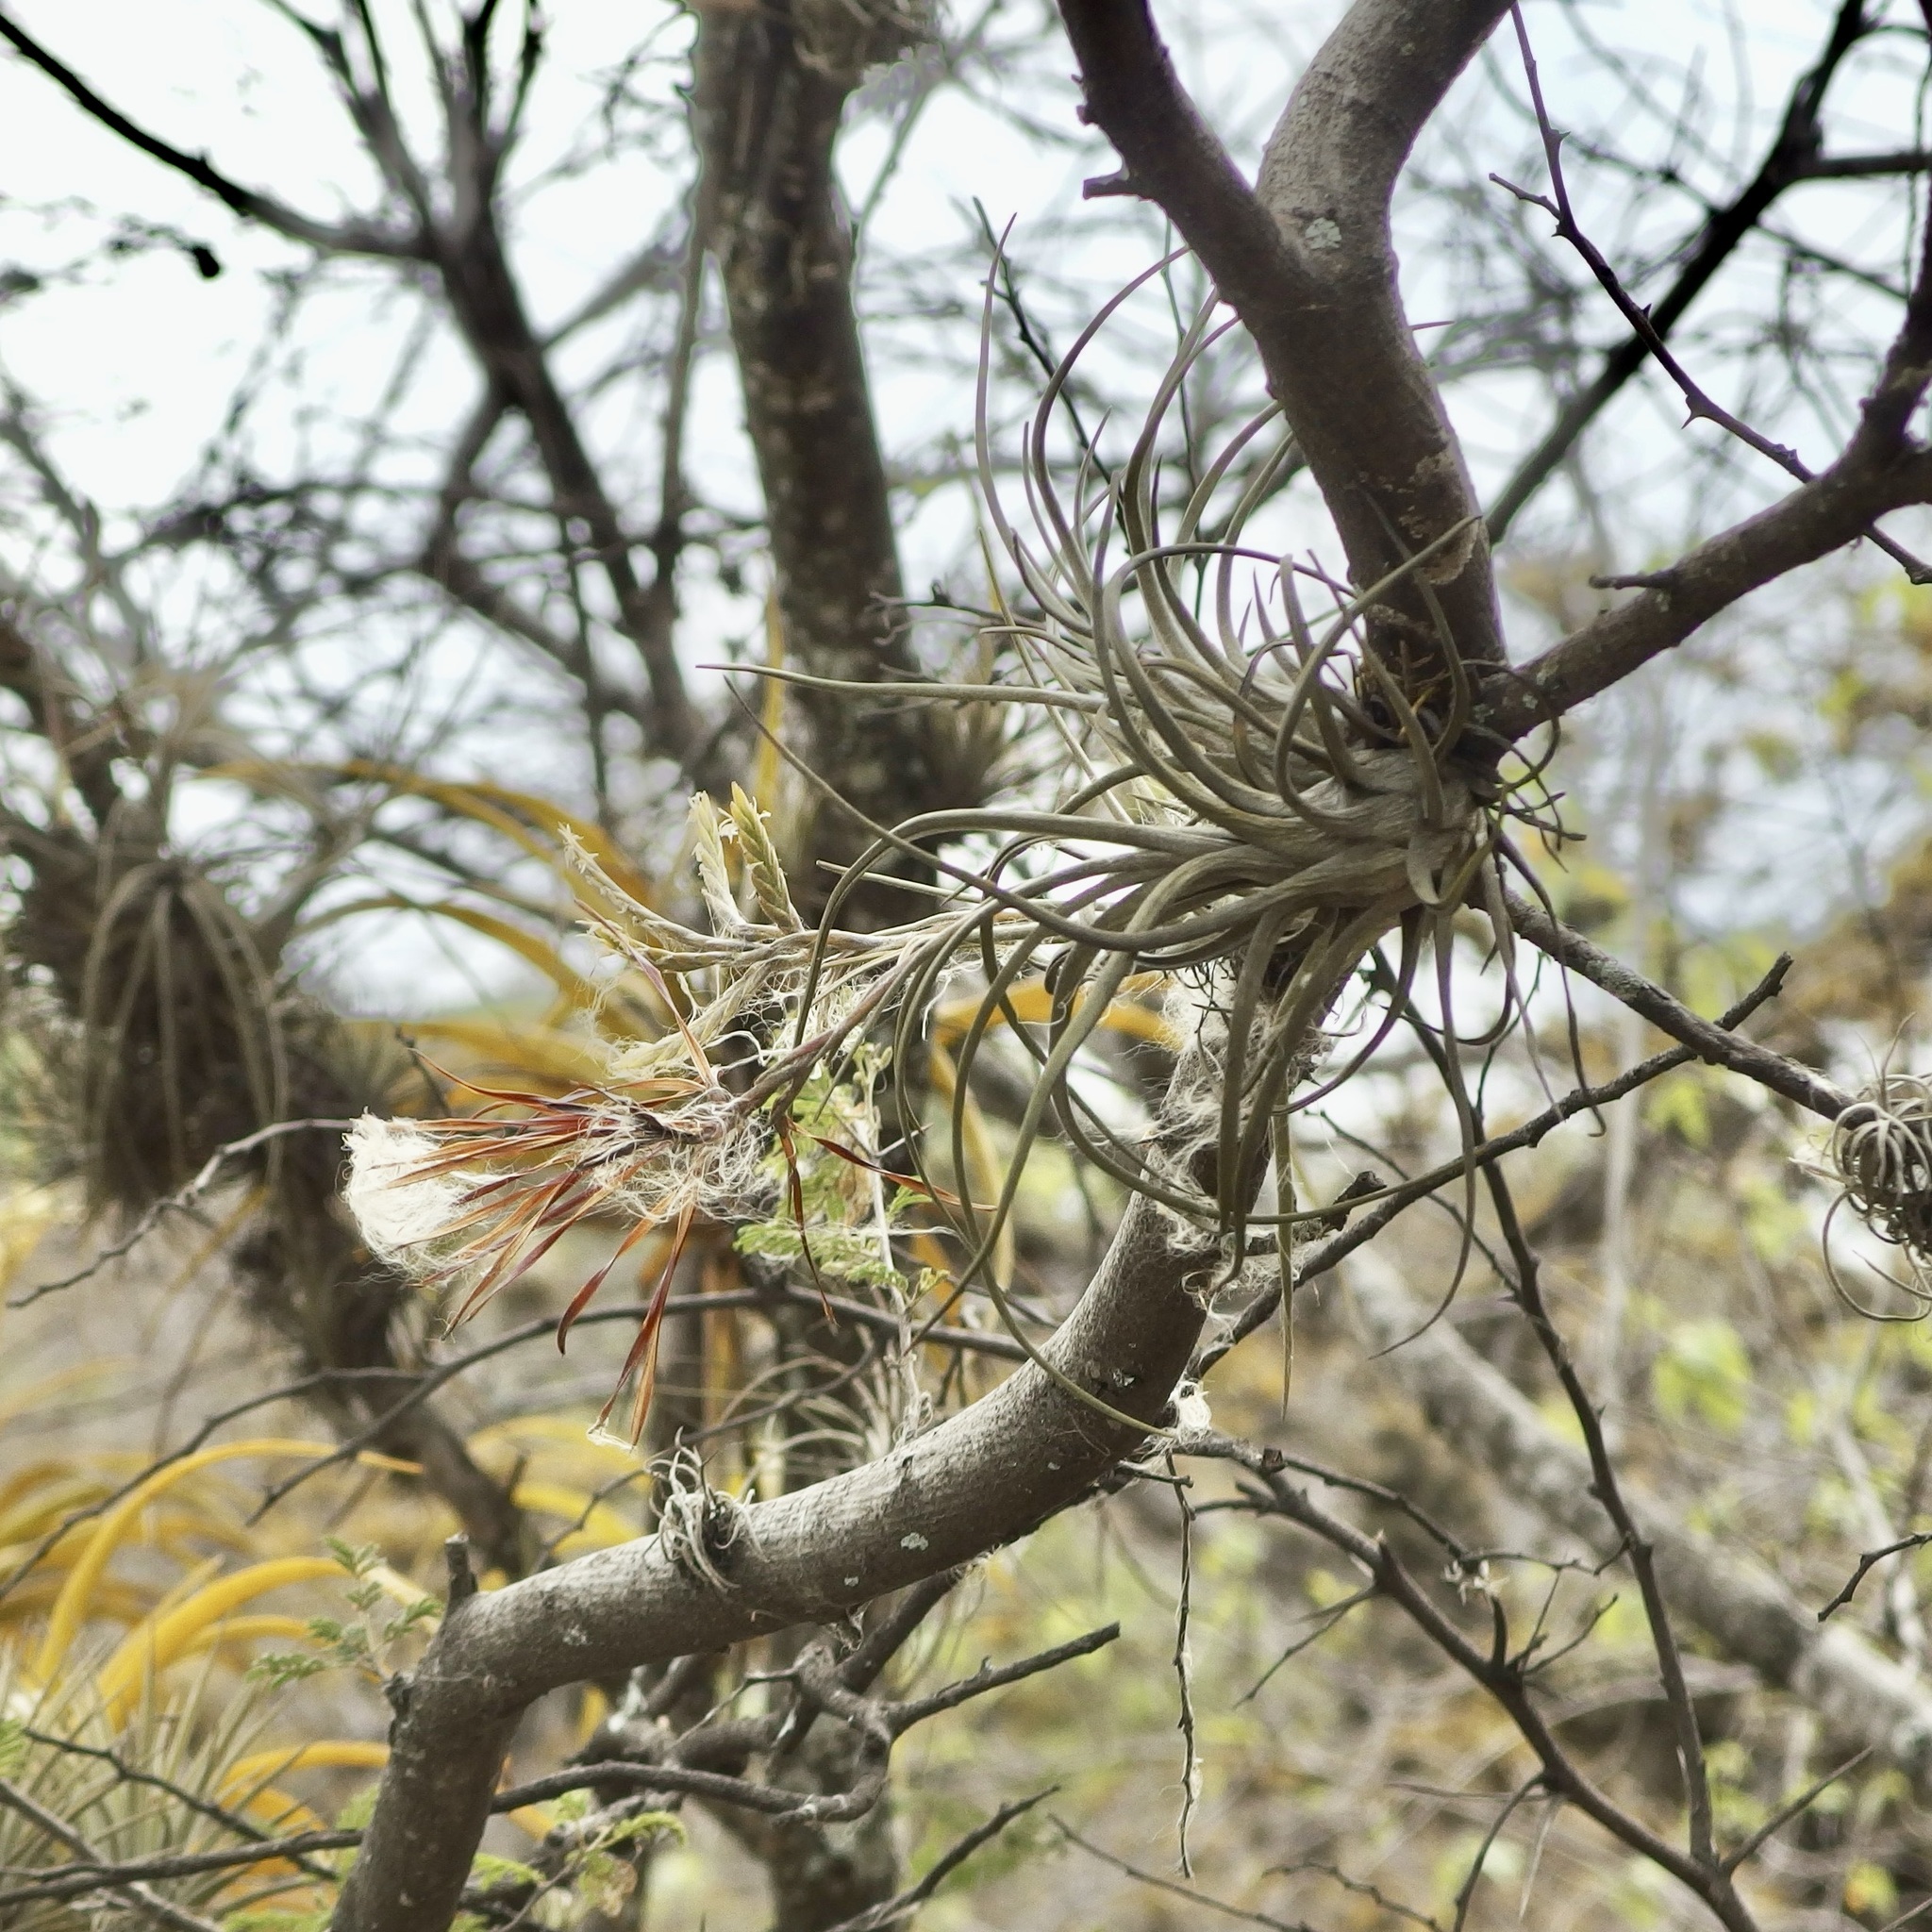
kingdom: Plantae
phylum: Tracheophyta
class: Liliopsida
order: Poales
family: Bromeliaceae
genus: Tillandsia
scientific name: Tillandsia disticha
